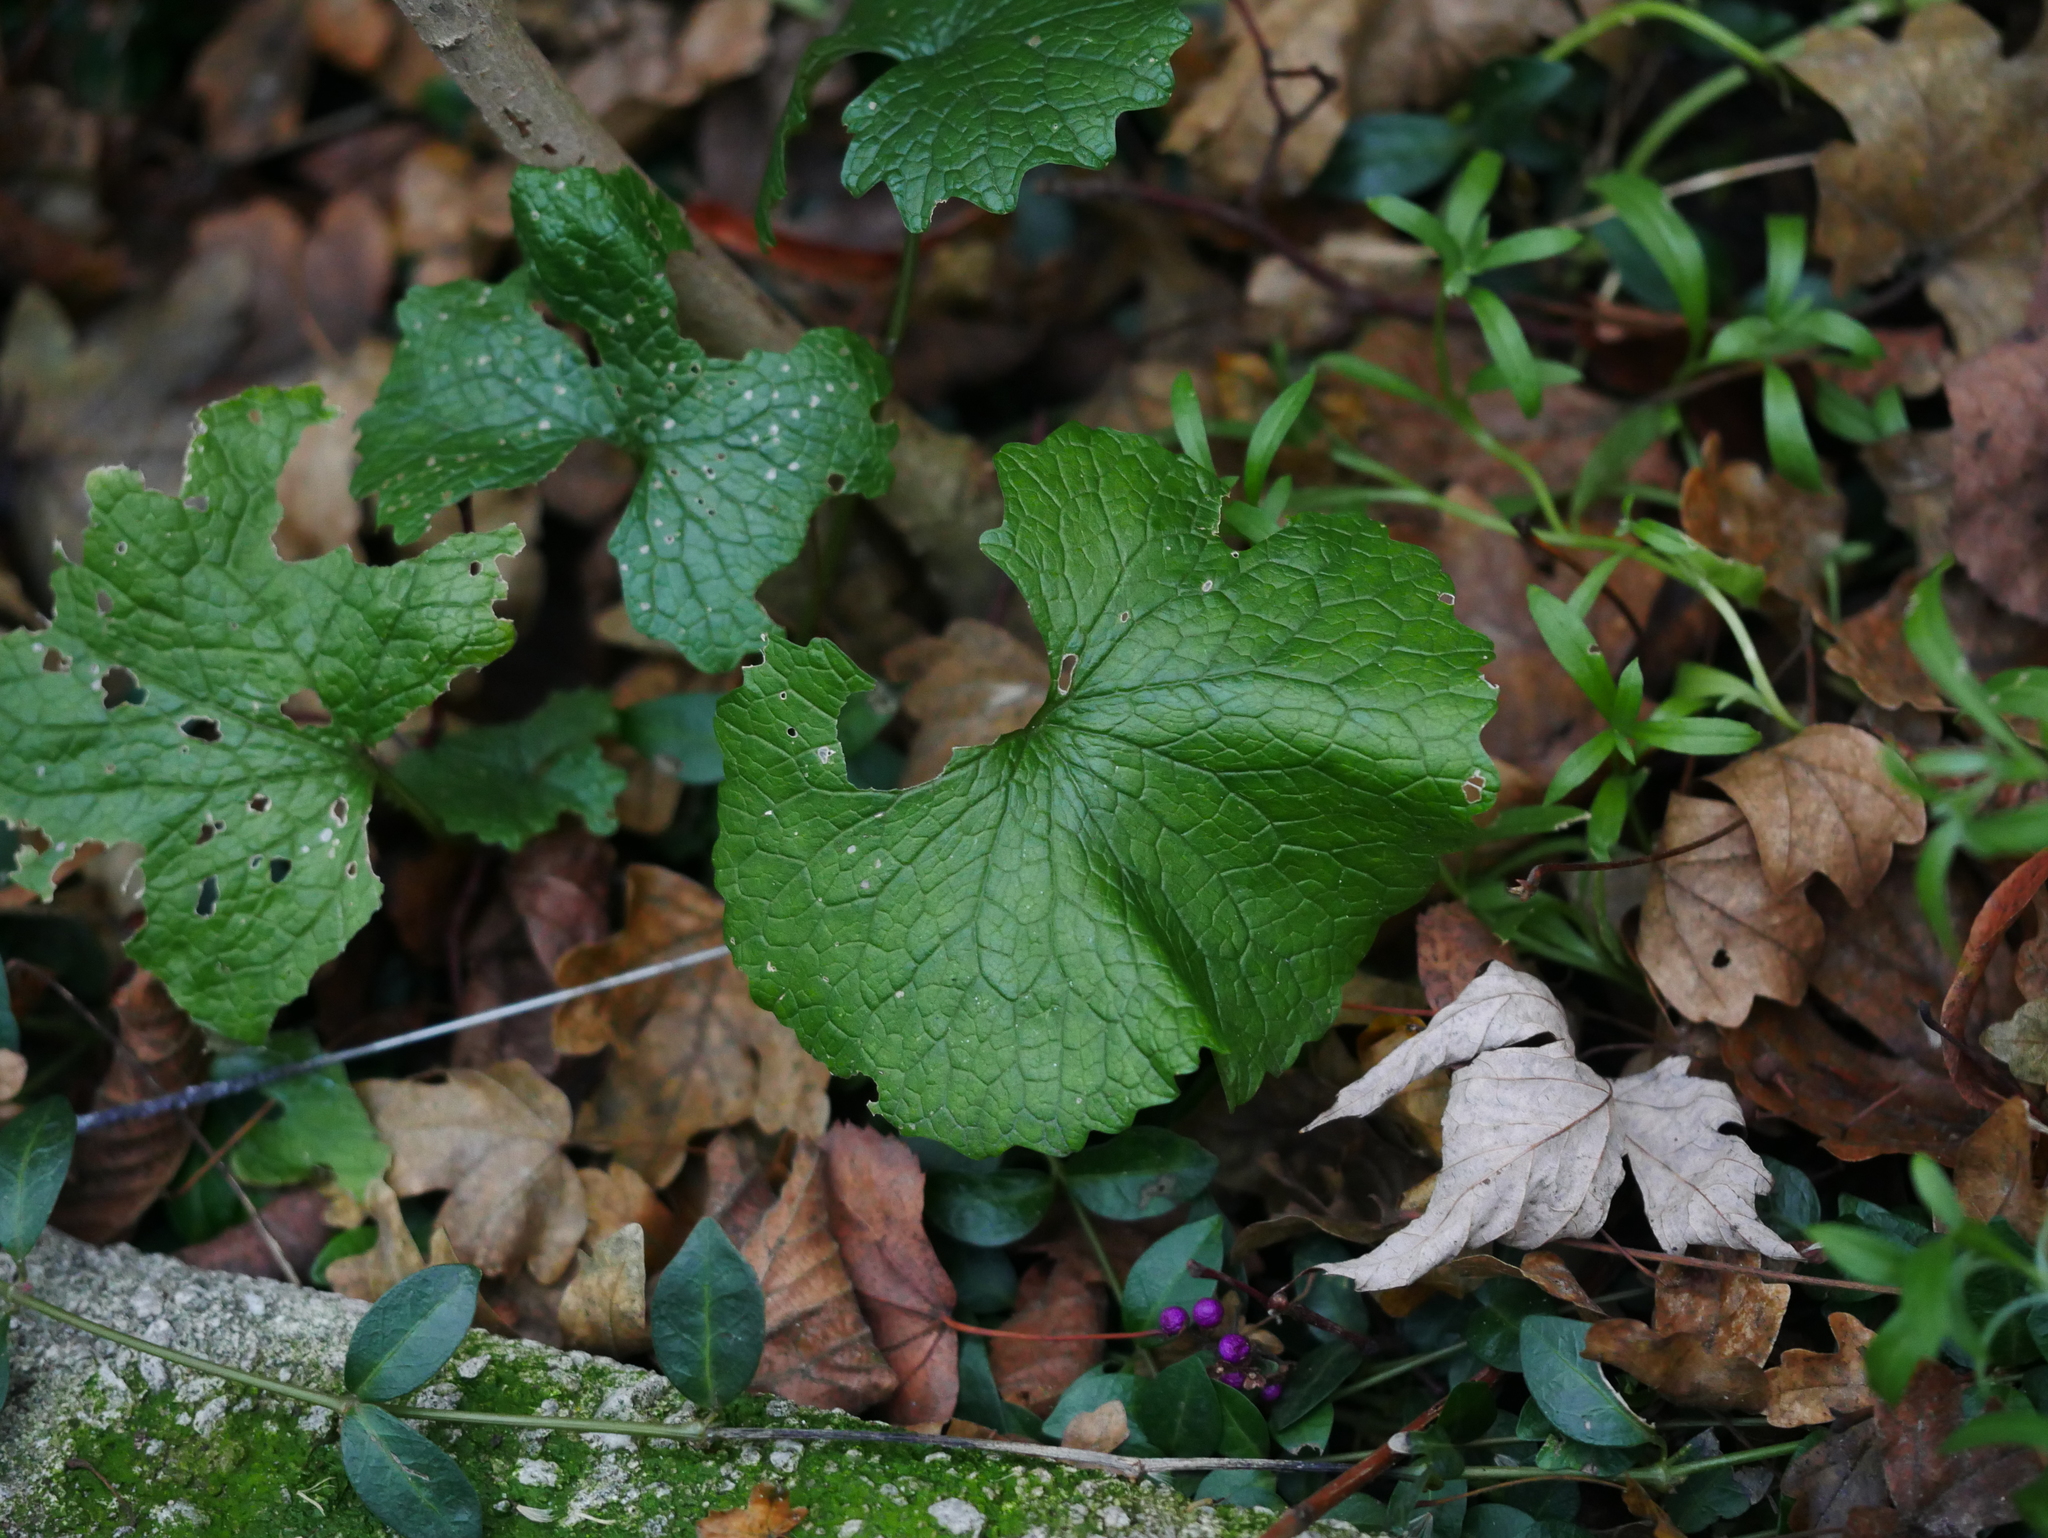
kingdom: Plantae
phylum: Tracheophyta
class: Magnoliopsida
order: Brassicales
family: Brassicaceae
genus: Alliaria
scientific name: Alliaria petiolata
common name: Garlic mustard
